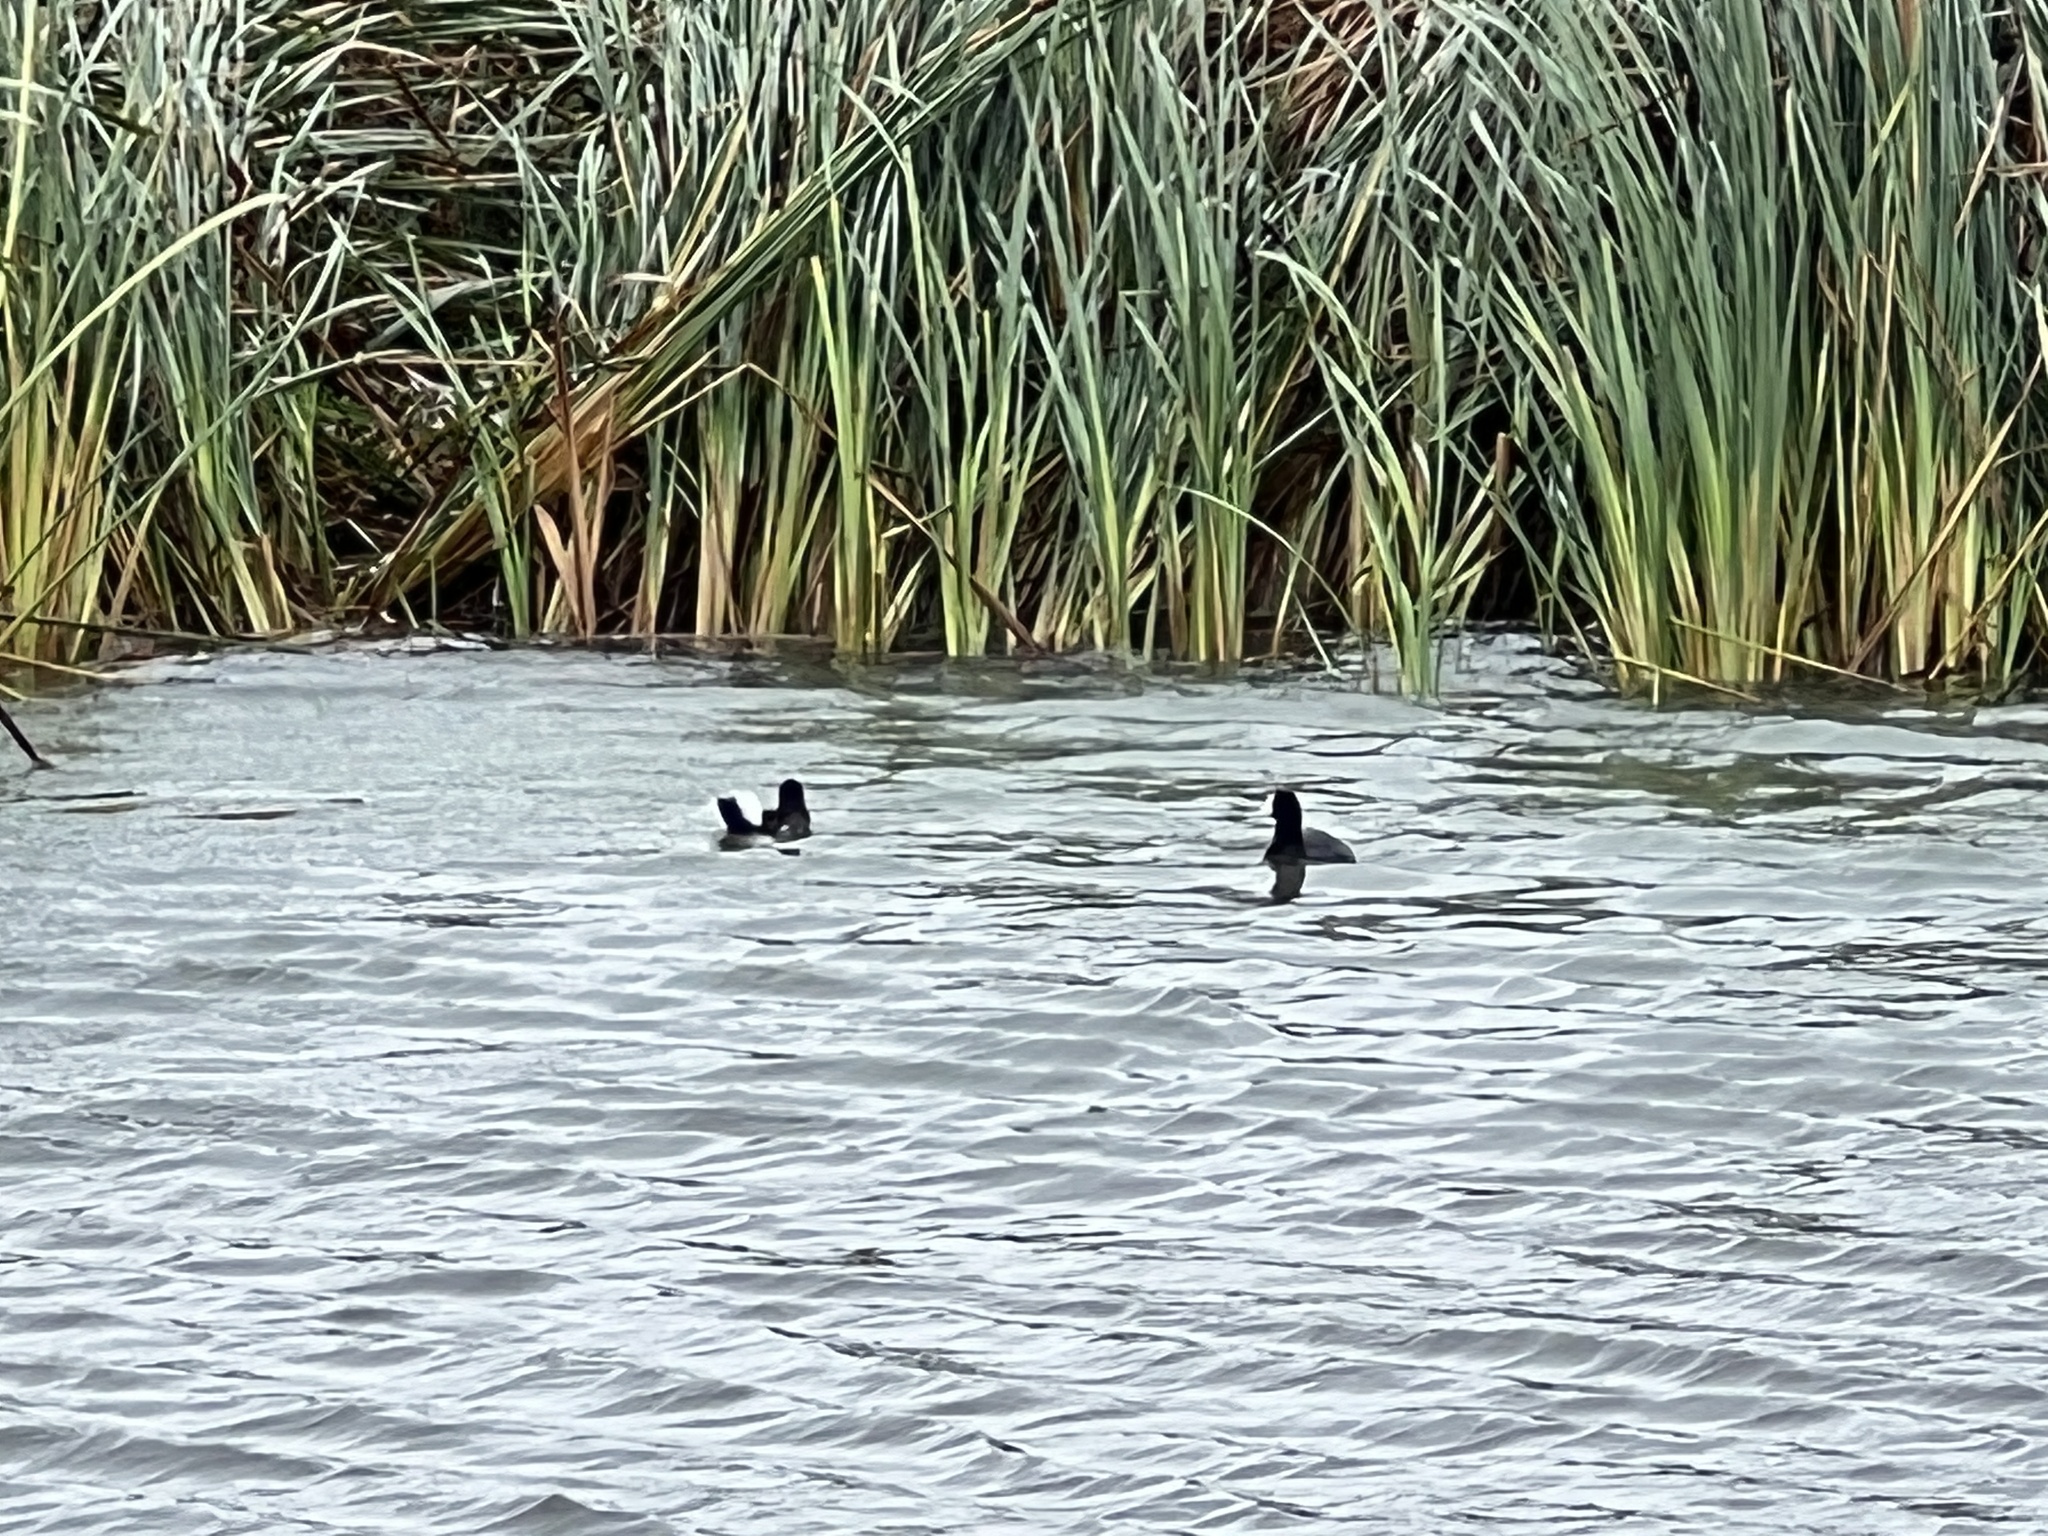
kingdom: Animalia
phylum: Chordata
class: Aves
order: Gruiformes
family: Rallidae
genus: Gallinula
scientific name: Gallinula chloropus
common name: Common moorhen
